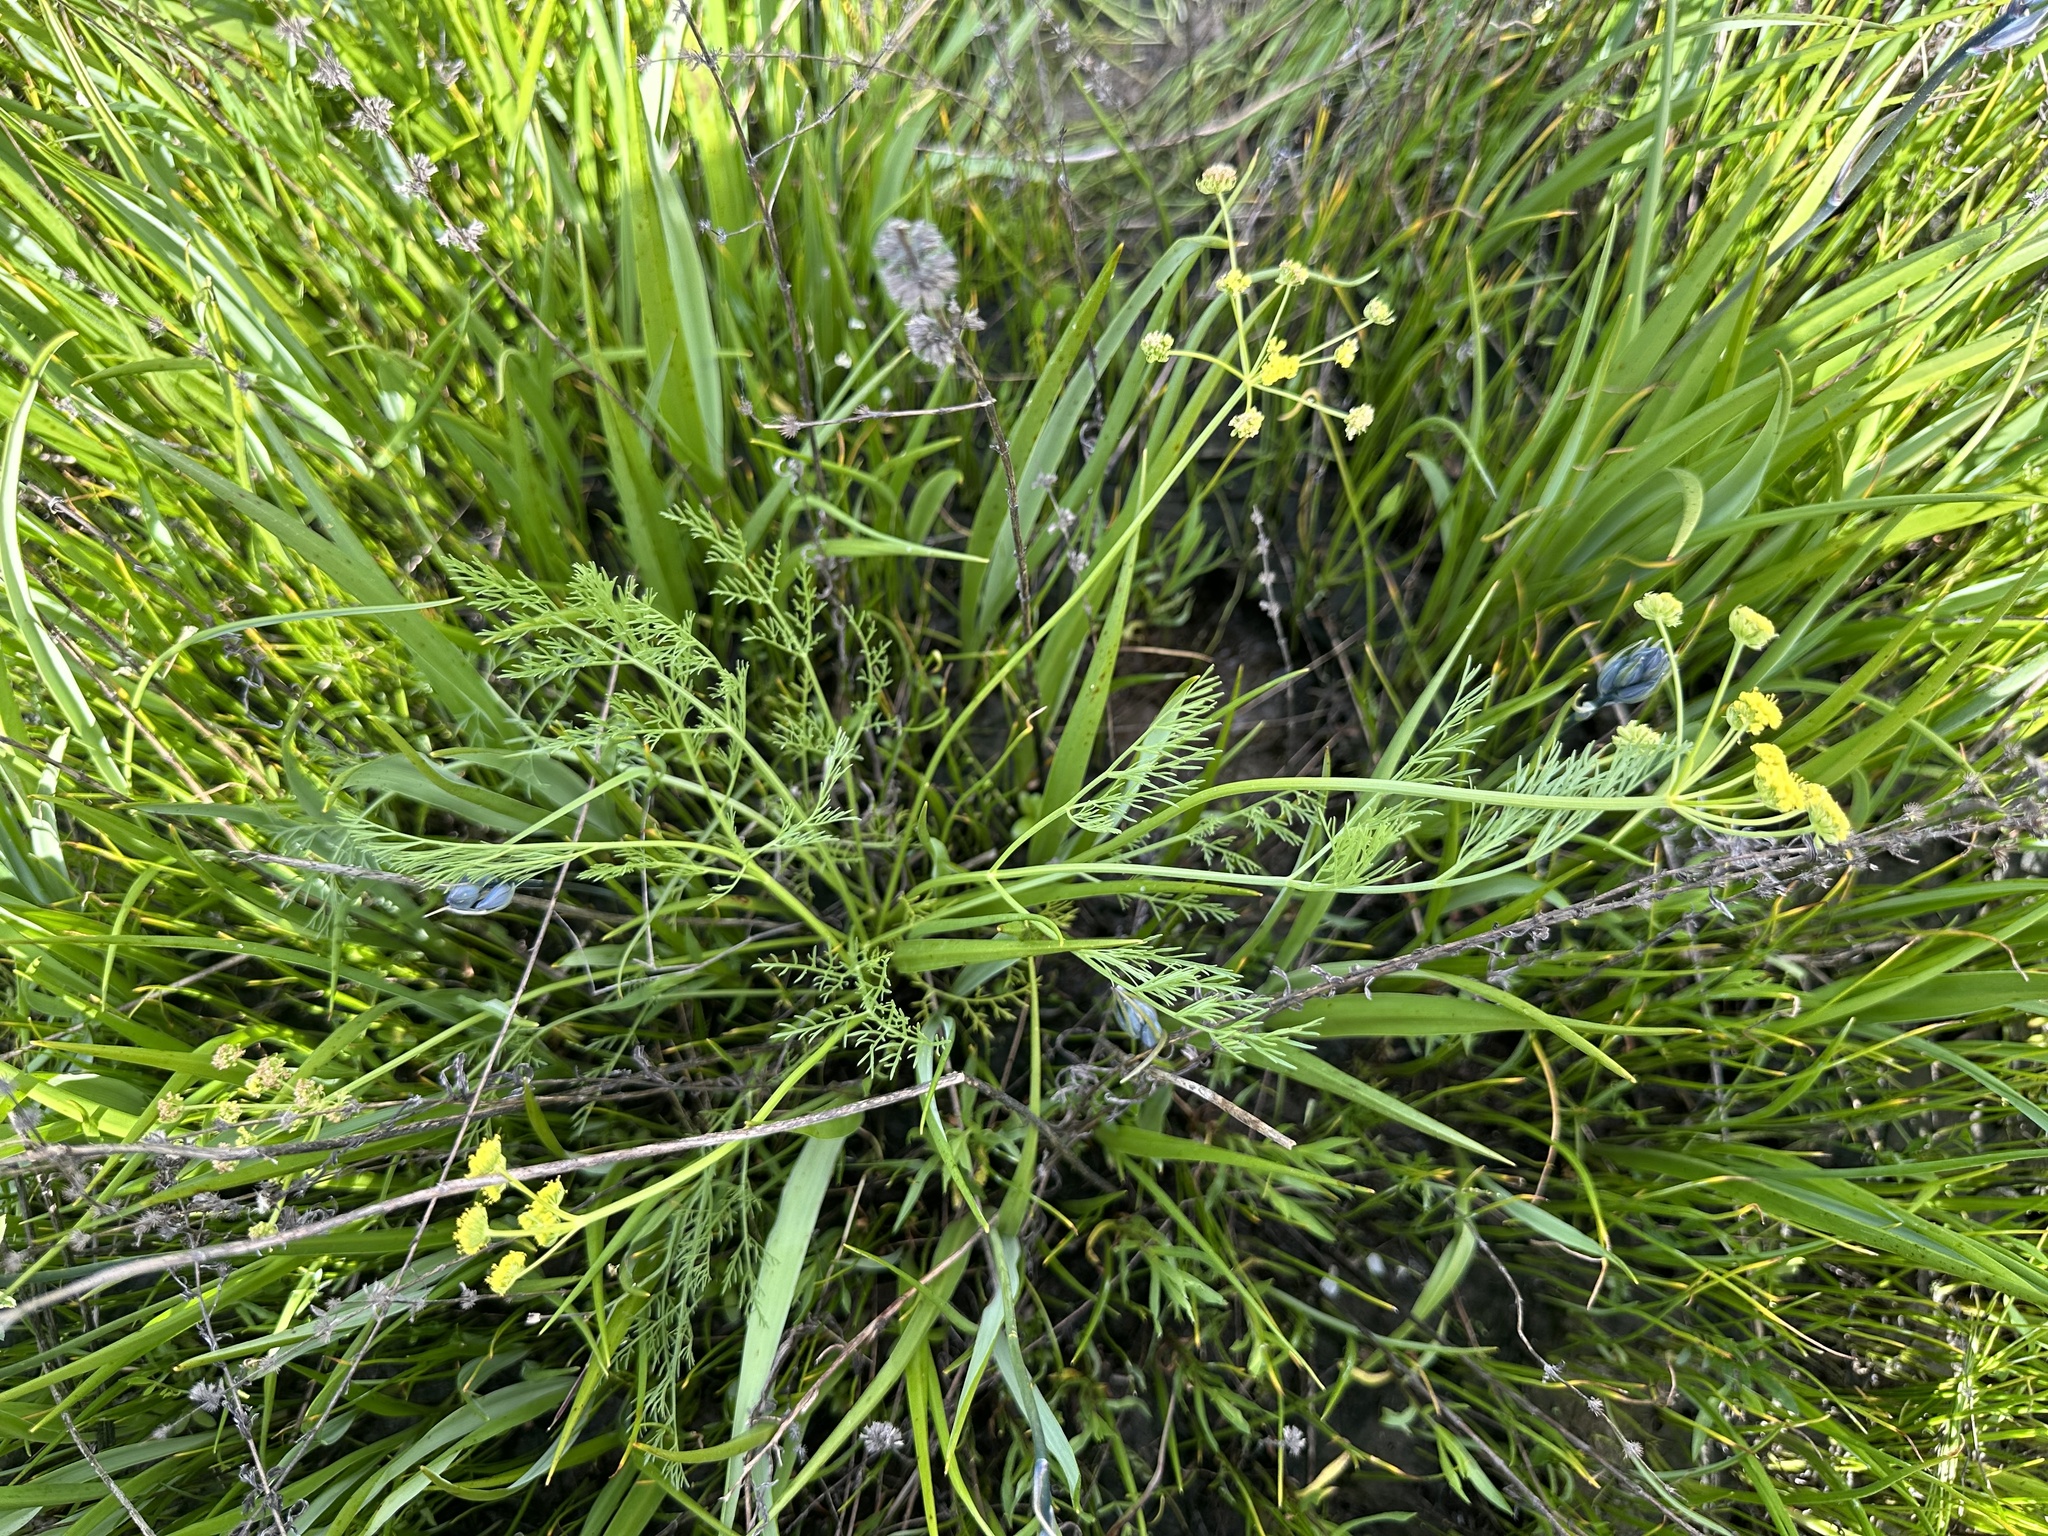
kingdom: Plantae
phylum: Tracheophyta
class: Magnoliopsida
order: Apiales
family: Apiaceae
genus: Lomatium
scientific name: Lomatium bradshawii
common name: Bradshaw's desert-parsley
